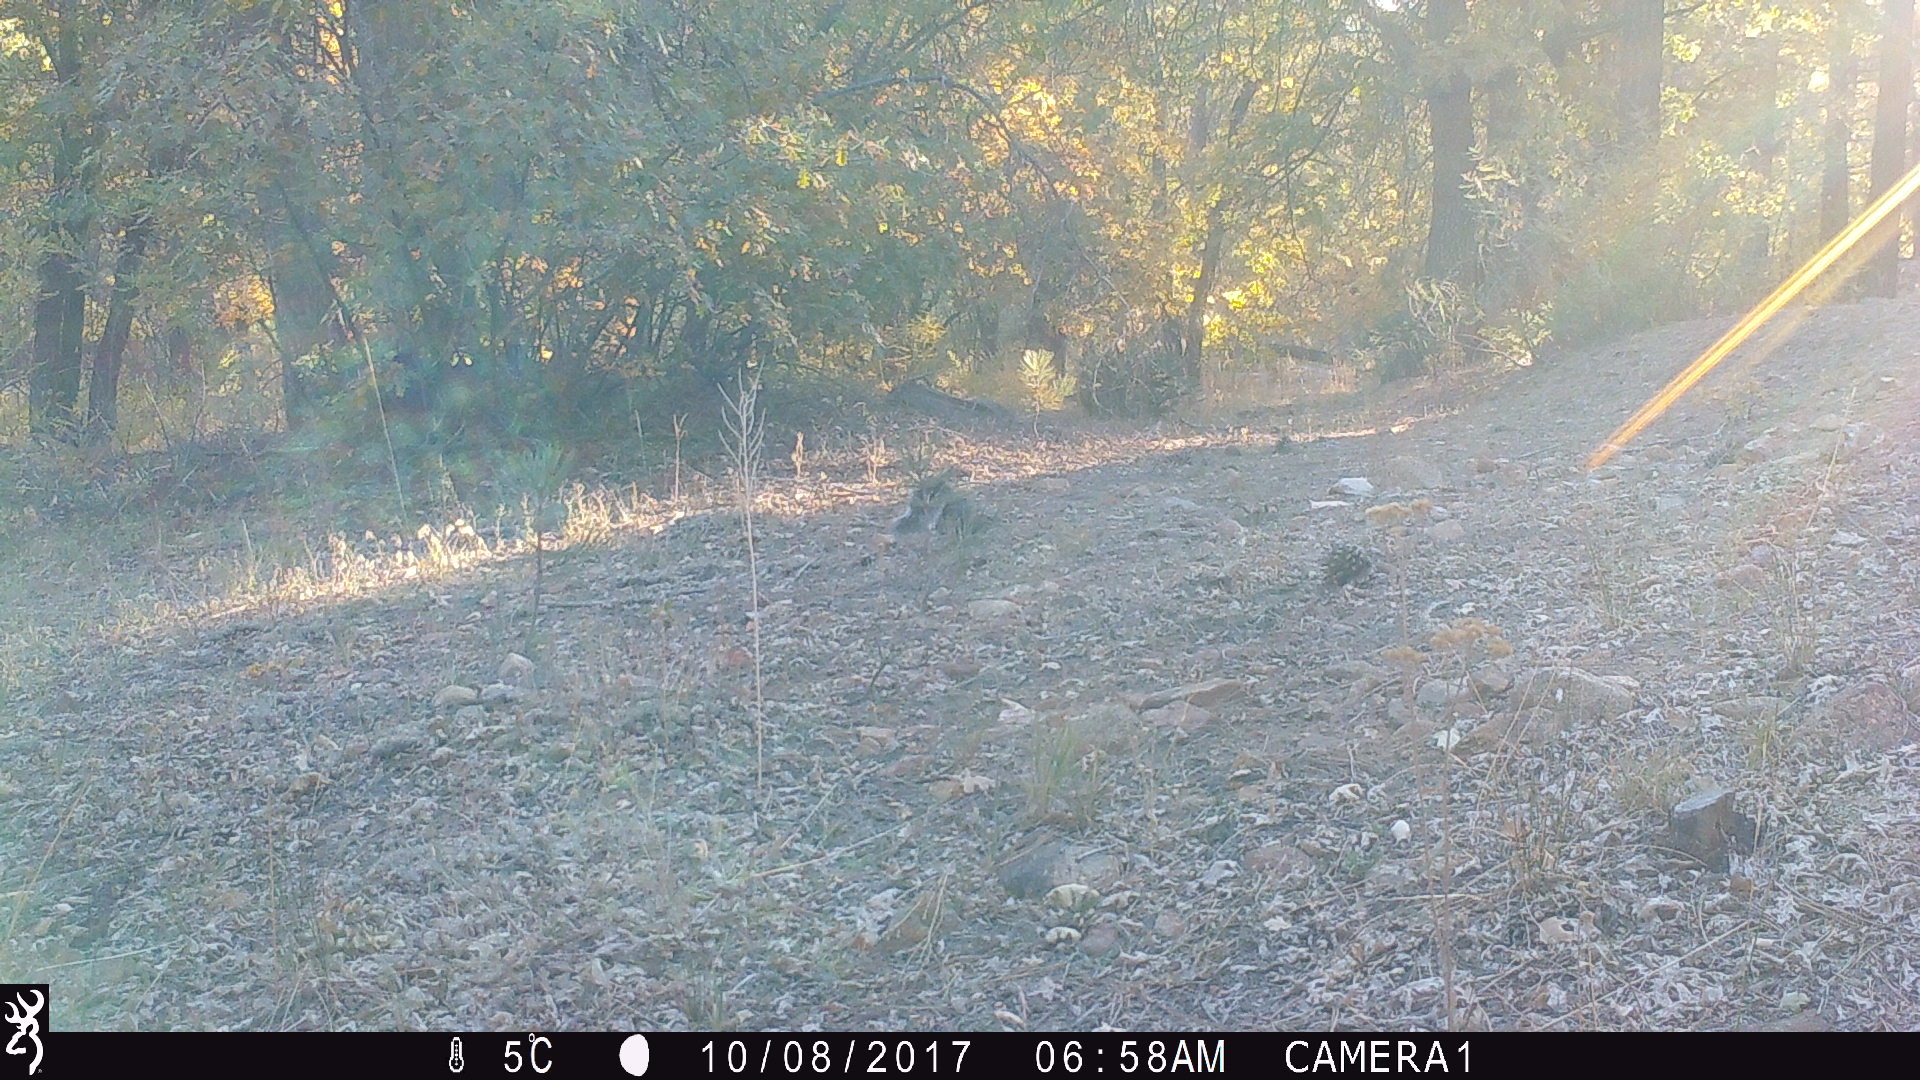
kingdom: Animalia
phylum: Chordata
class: Mammalia
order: Rodentia
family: Sciuridae
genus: Sciurus
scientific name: Sciurus griseus
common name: Western gray squirrel
